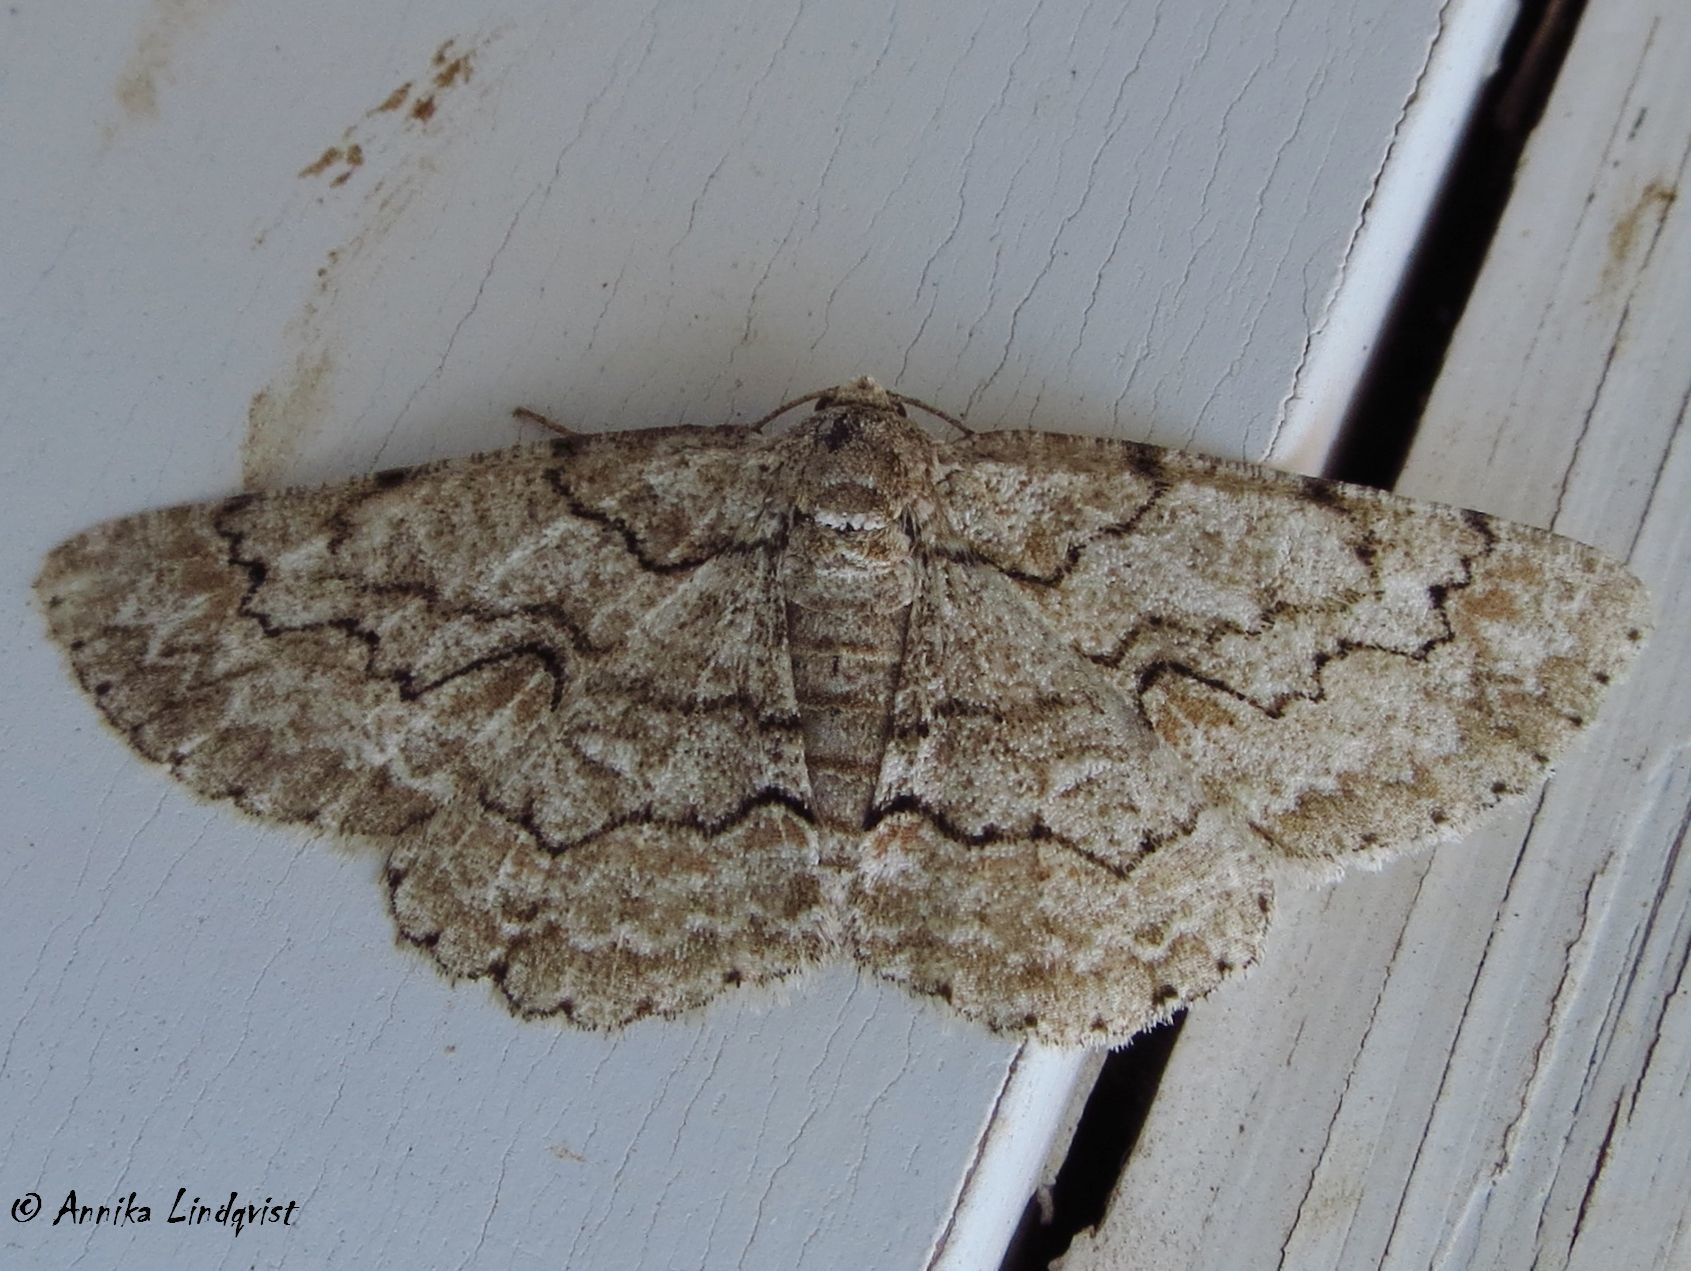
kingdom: Animalia
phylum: Arthropoda
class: Insecta
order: Lepidoptera
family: Geometridae
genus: Iridopsis
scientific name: Iridopsis defectaria
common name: Brown-shaded gray
